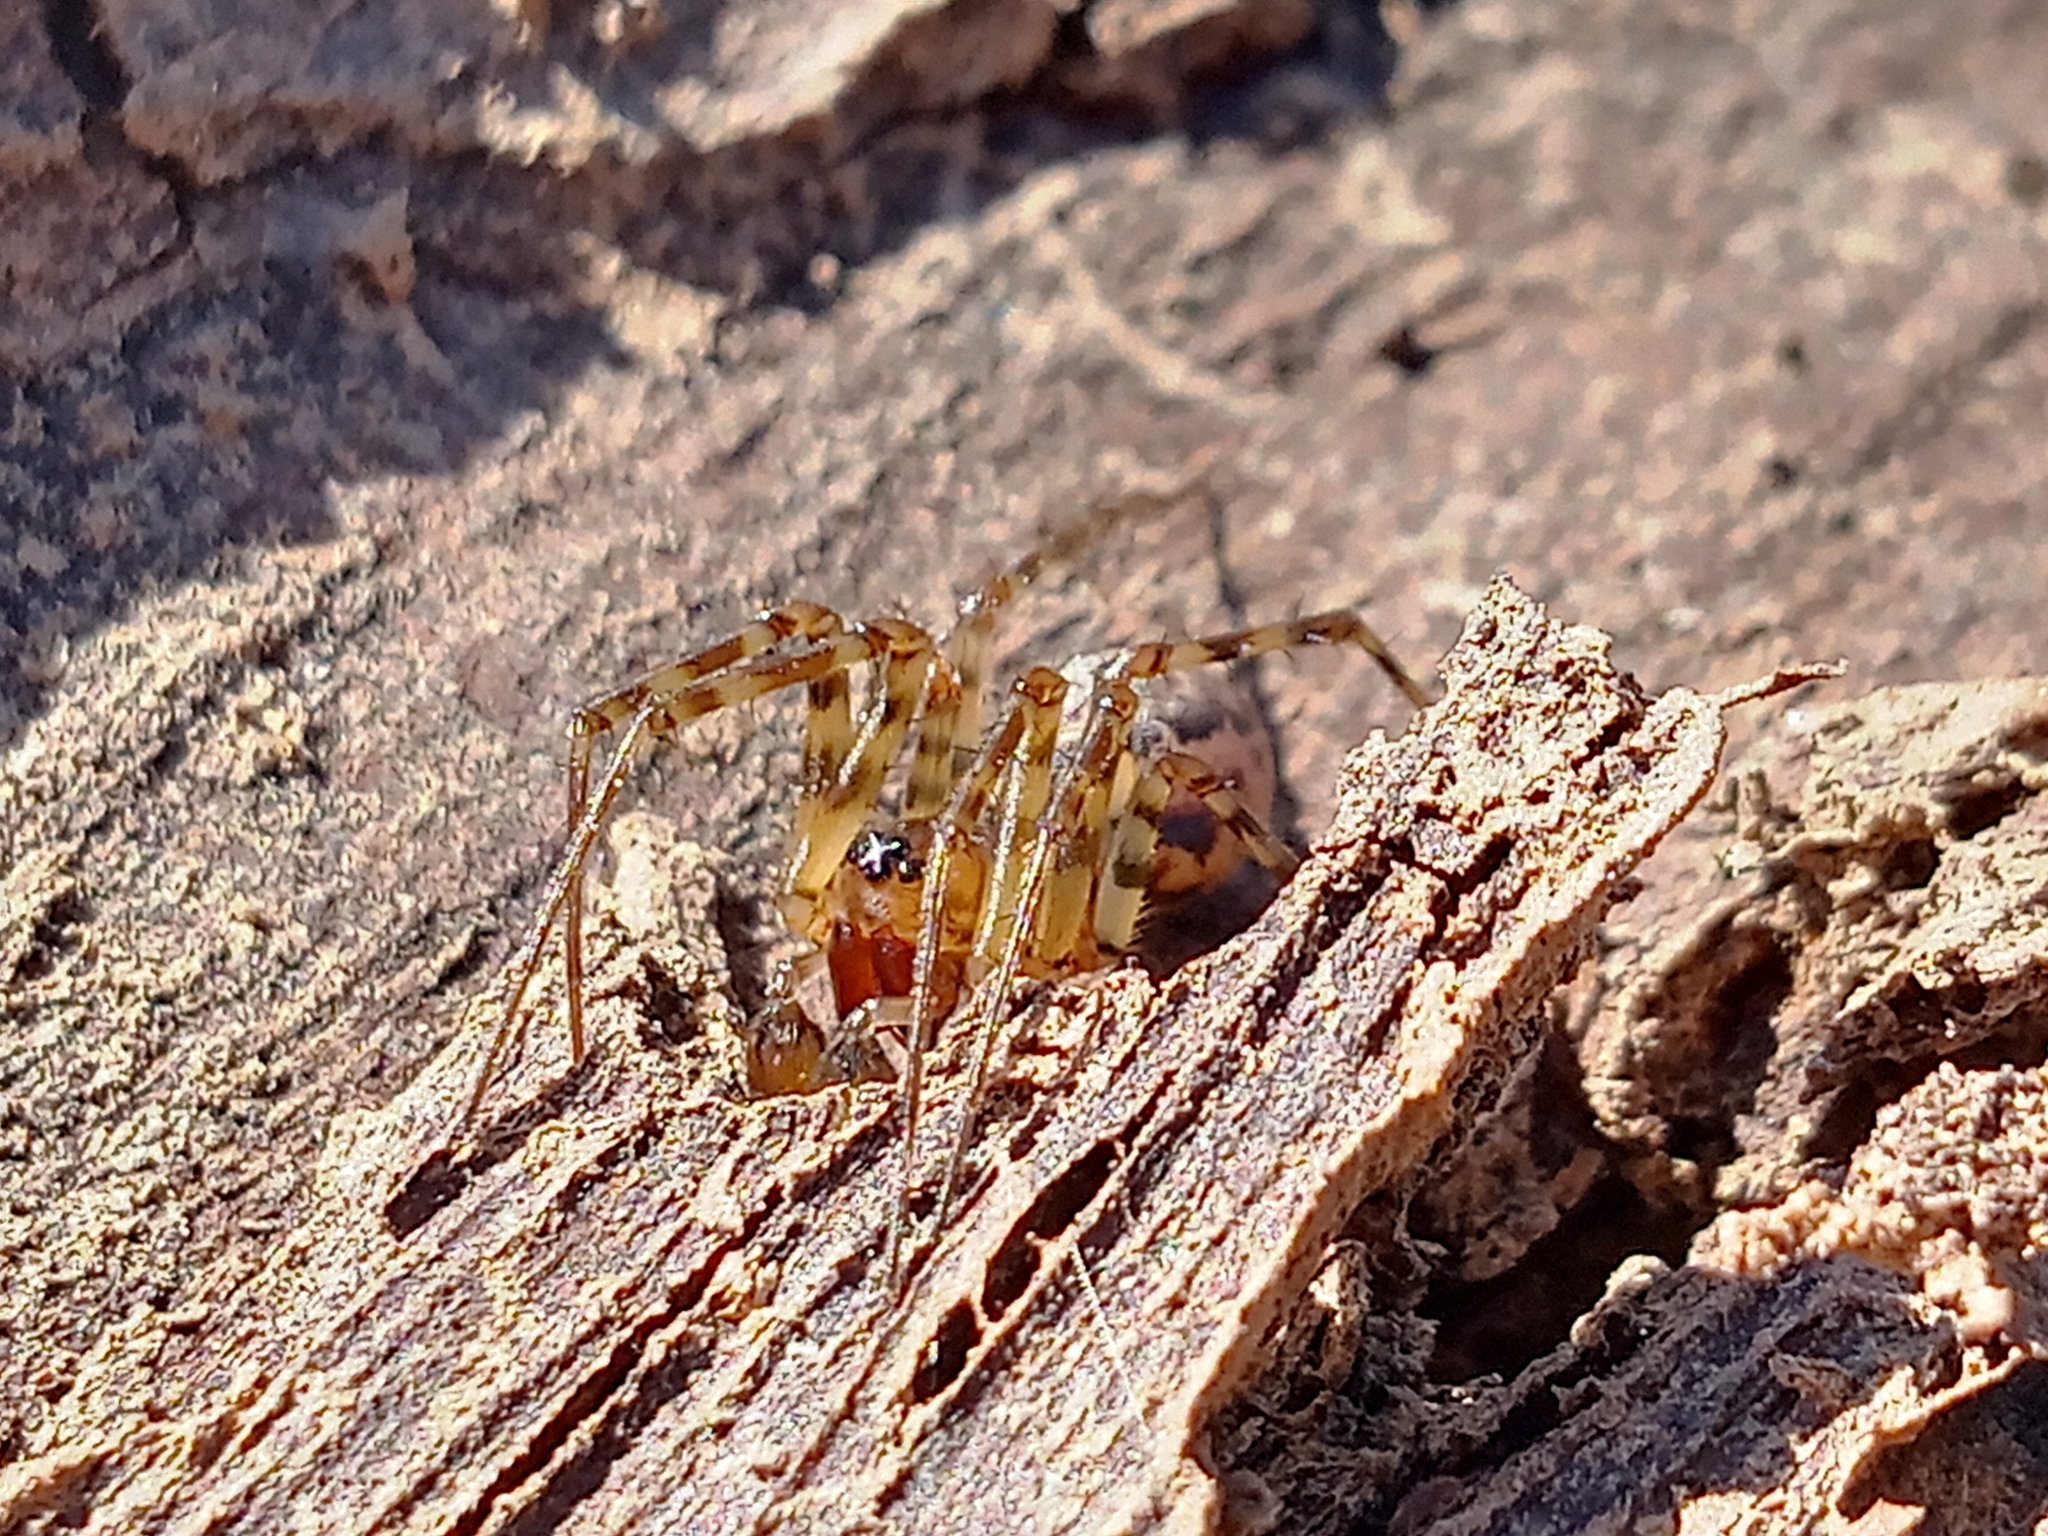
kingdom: Animalia
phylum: Arthropoda
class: Arachnida
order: Araneae
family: Linyphiidae
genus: Neriene
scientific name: Neriene montana
